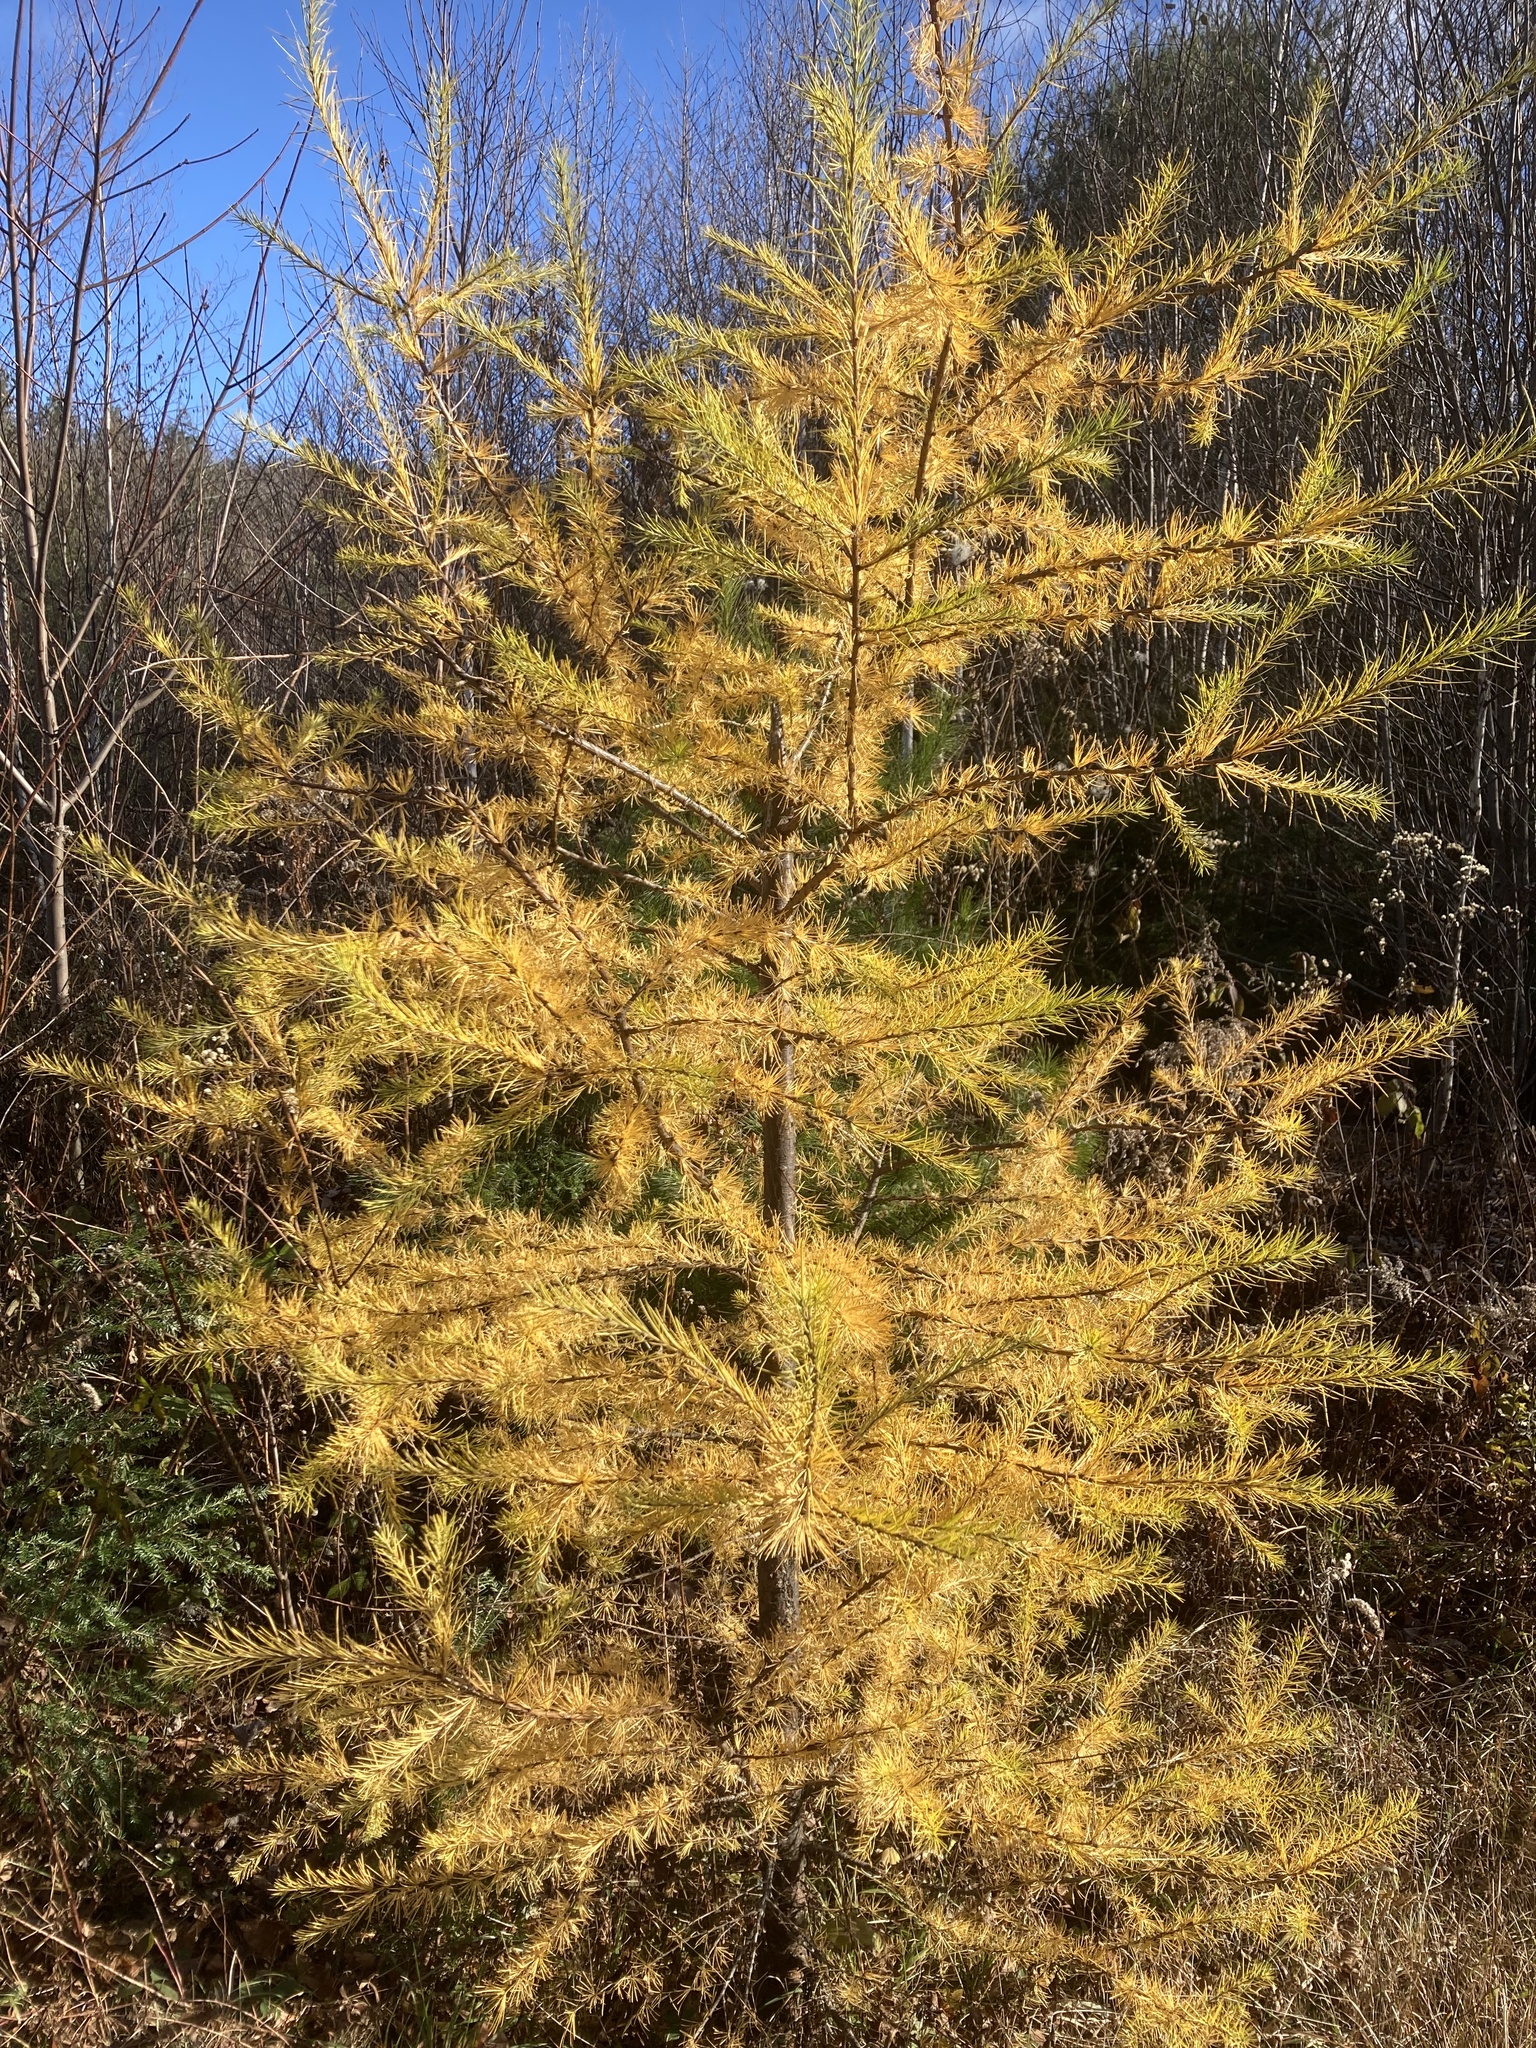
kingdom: Plantae
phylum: Tracheophyta
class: Pinopsida
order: Pinales
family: Pinaceae
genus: Larix
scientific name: Larix laricina
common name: American larch
